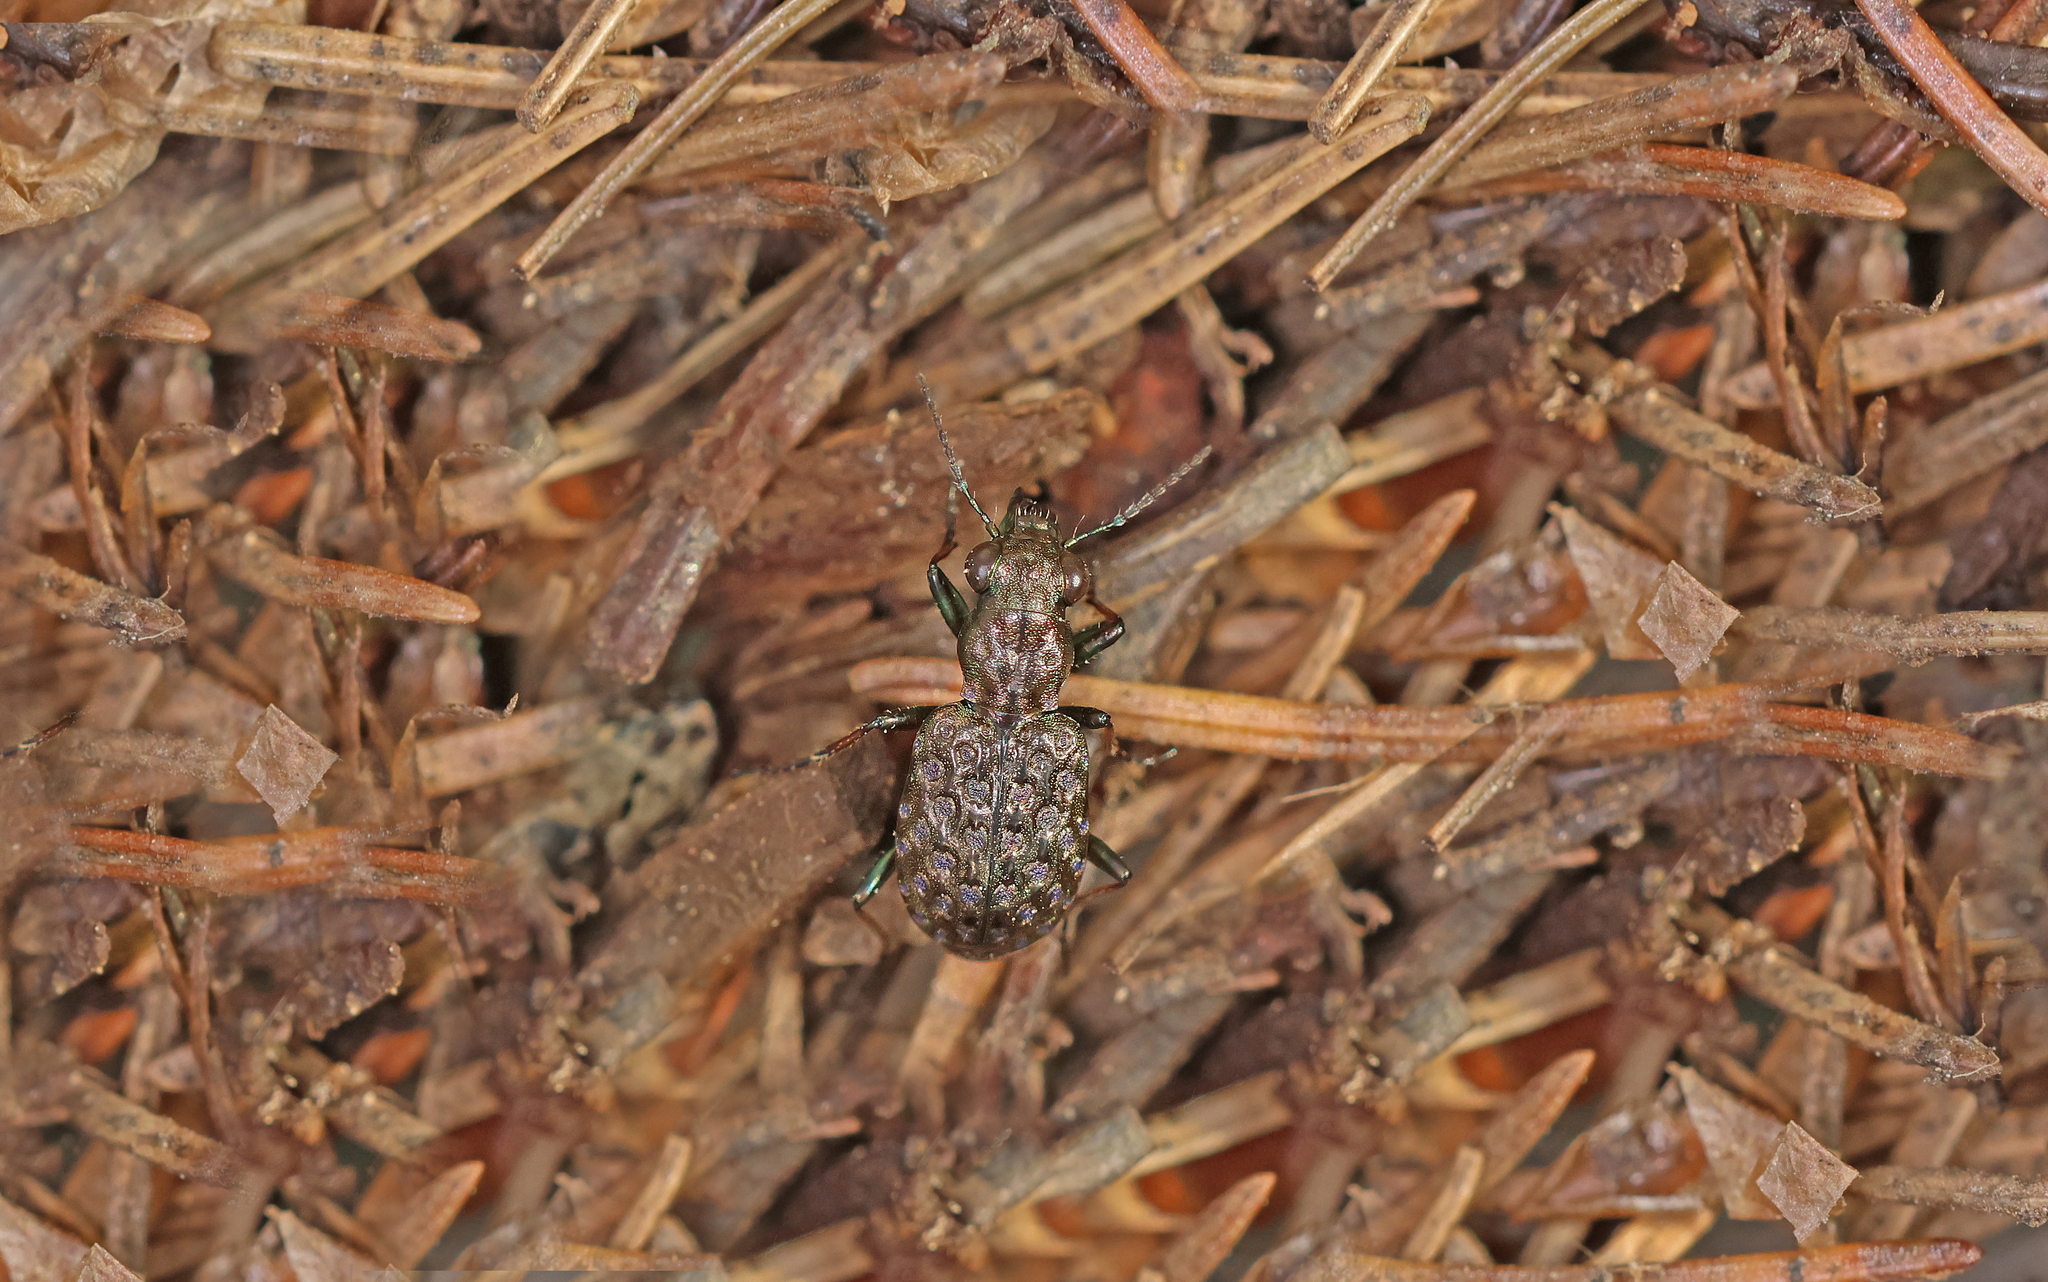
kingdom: Animalia
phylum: Arthropoda
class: Insecta
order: Coleoptera
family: Carabidae
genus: Elaphrus
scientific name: Elaphrus cupreus
